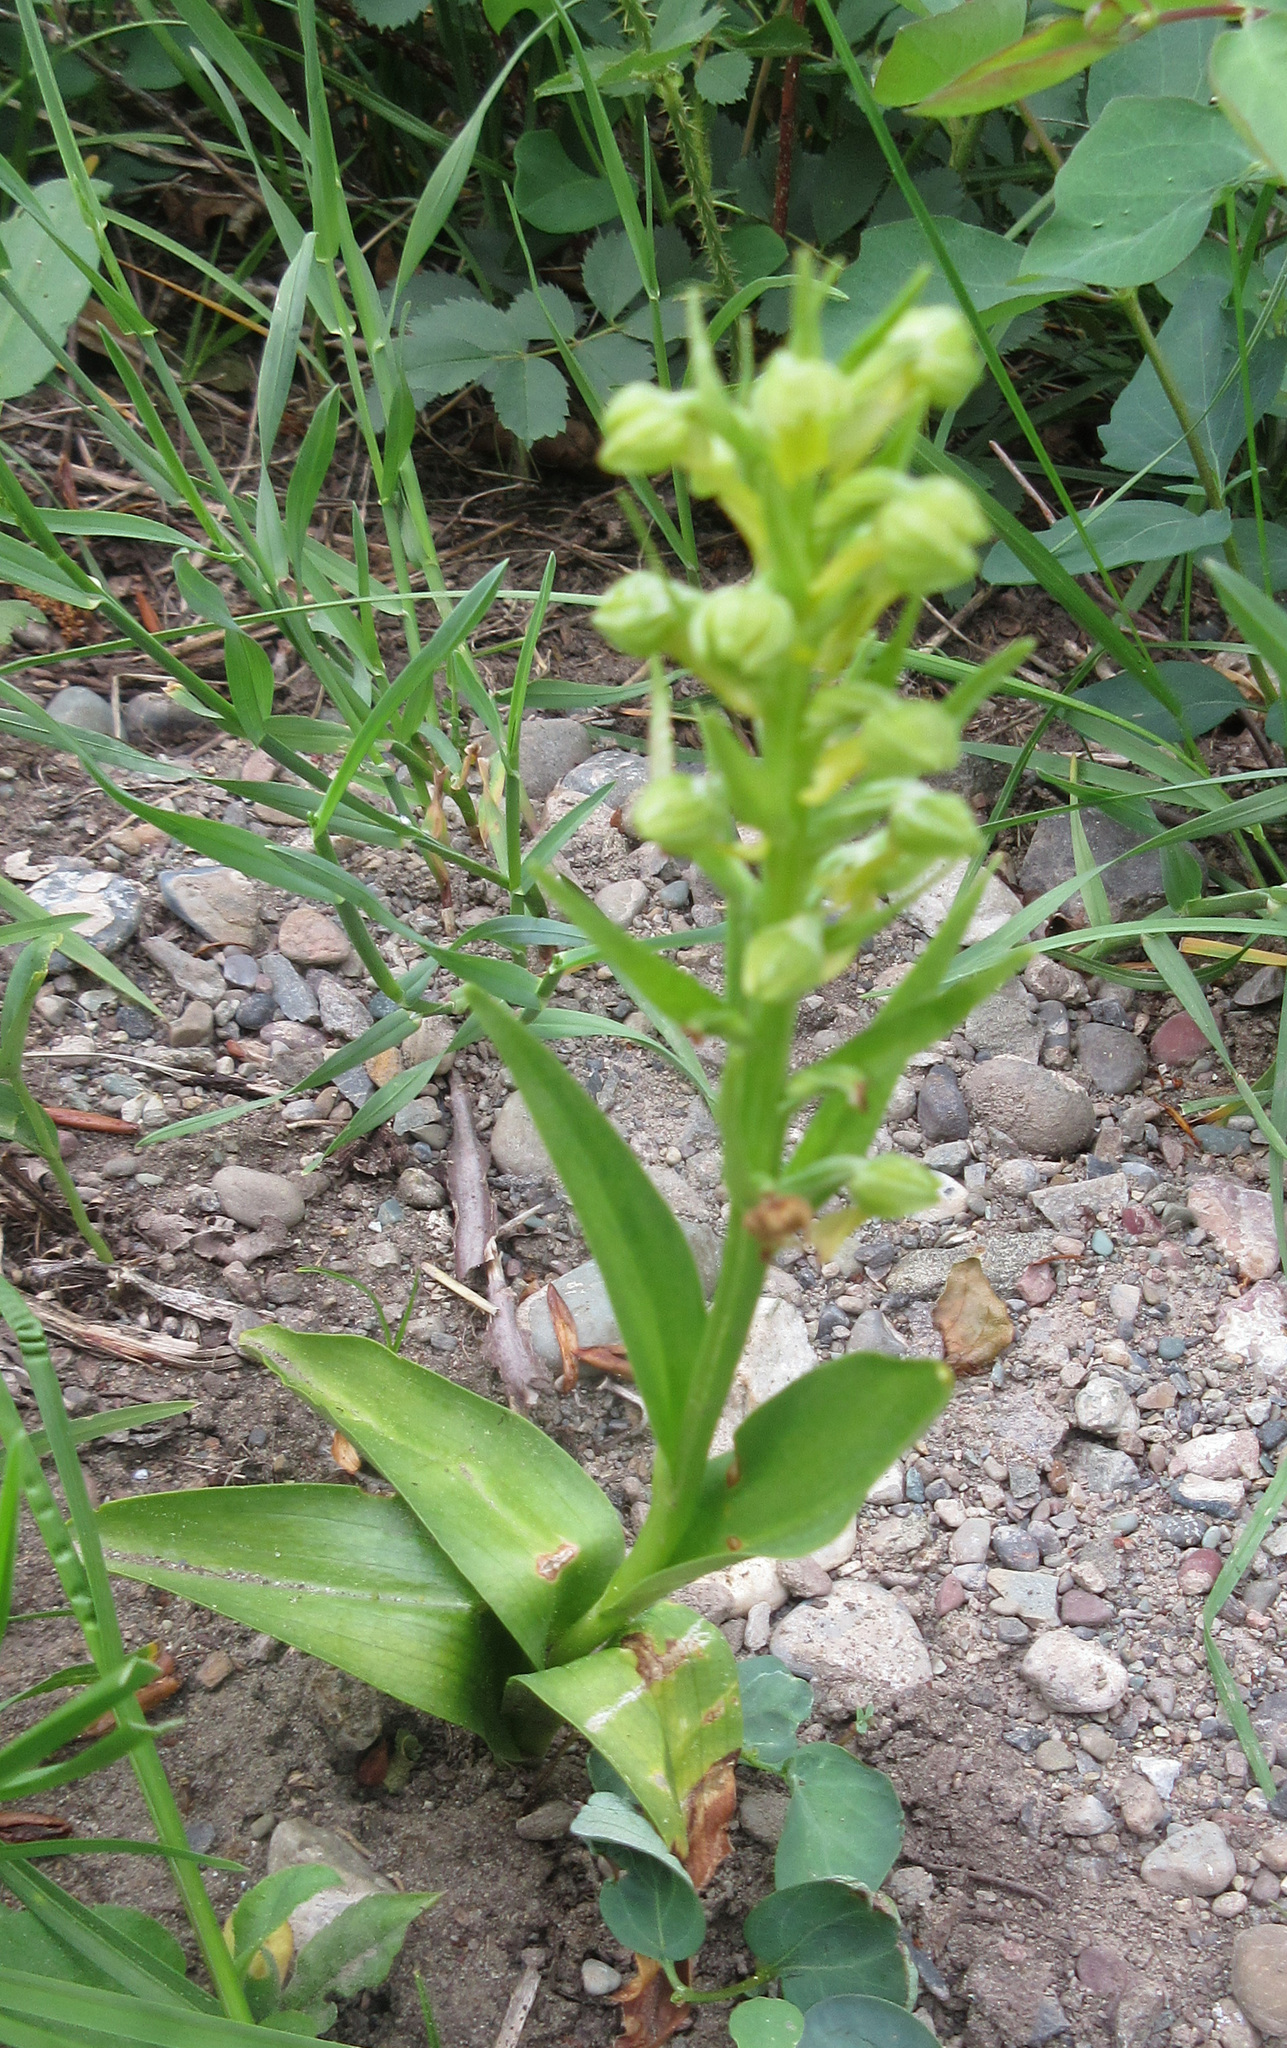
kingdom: Plantae
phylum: Tracheophyta
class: Liliopsida
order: Asparagales
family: Orchidaceae
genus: Dactylorhiza
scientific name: Dactylorhiza viridis
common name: Longbract frog orchid
